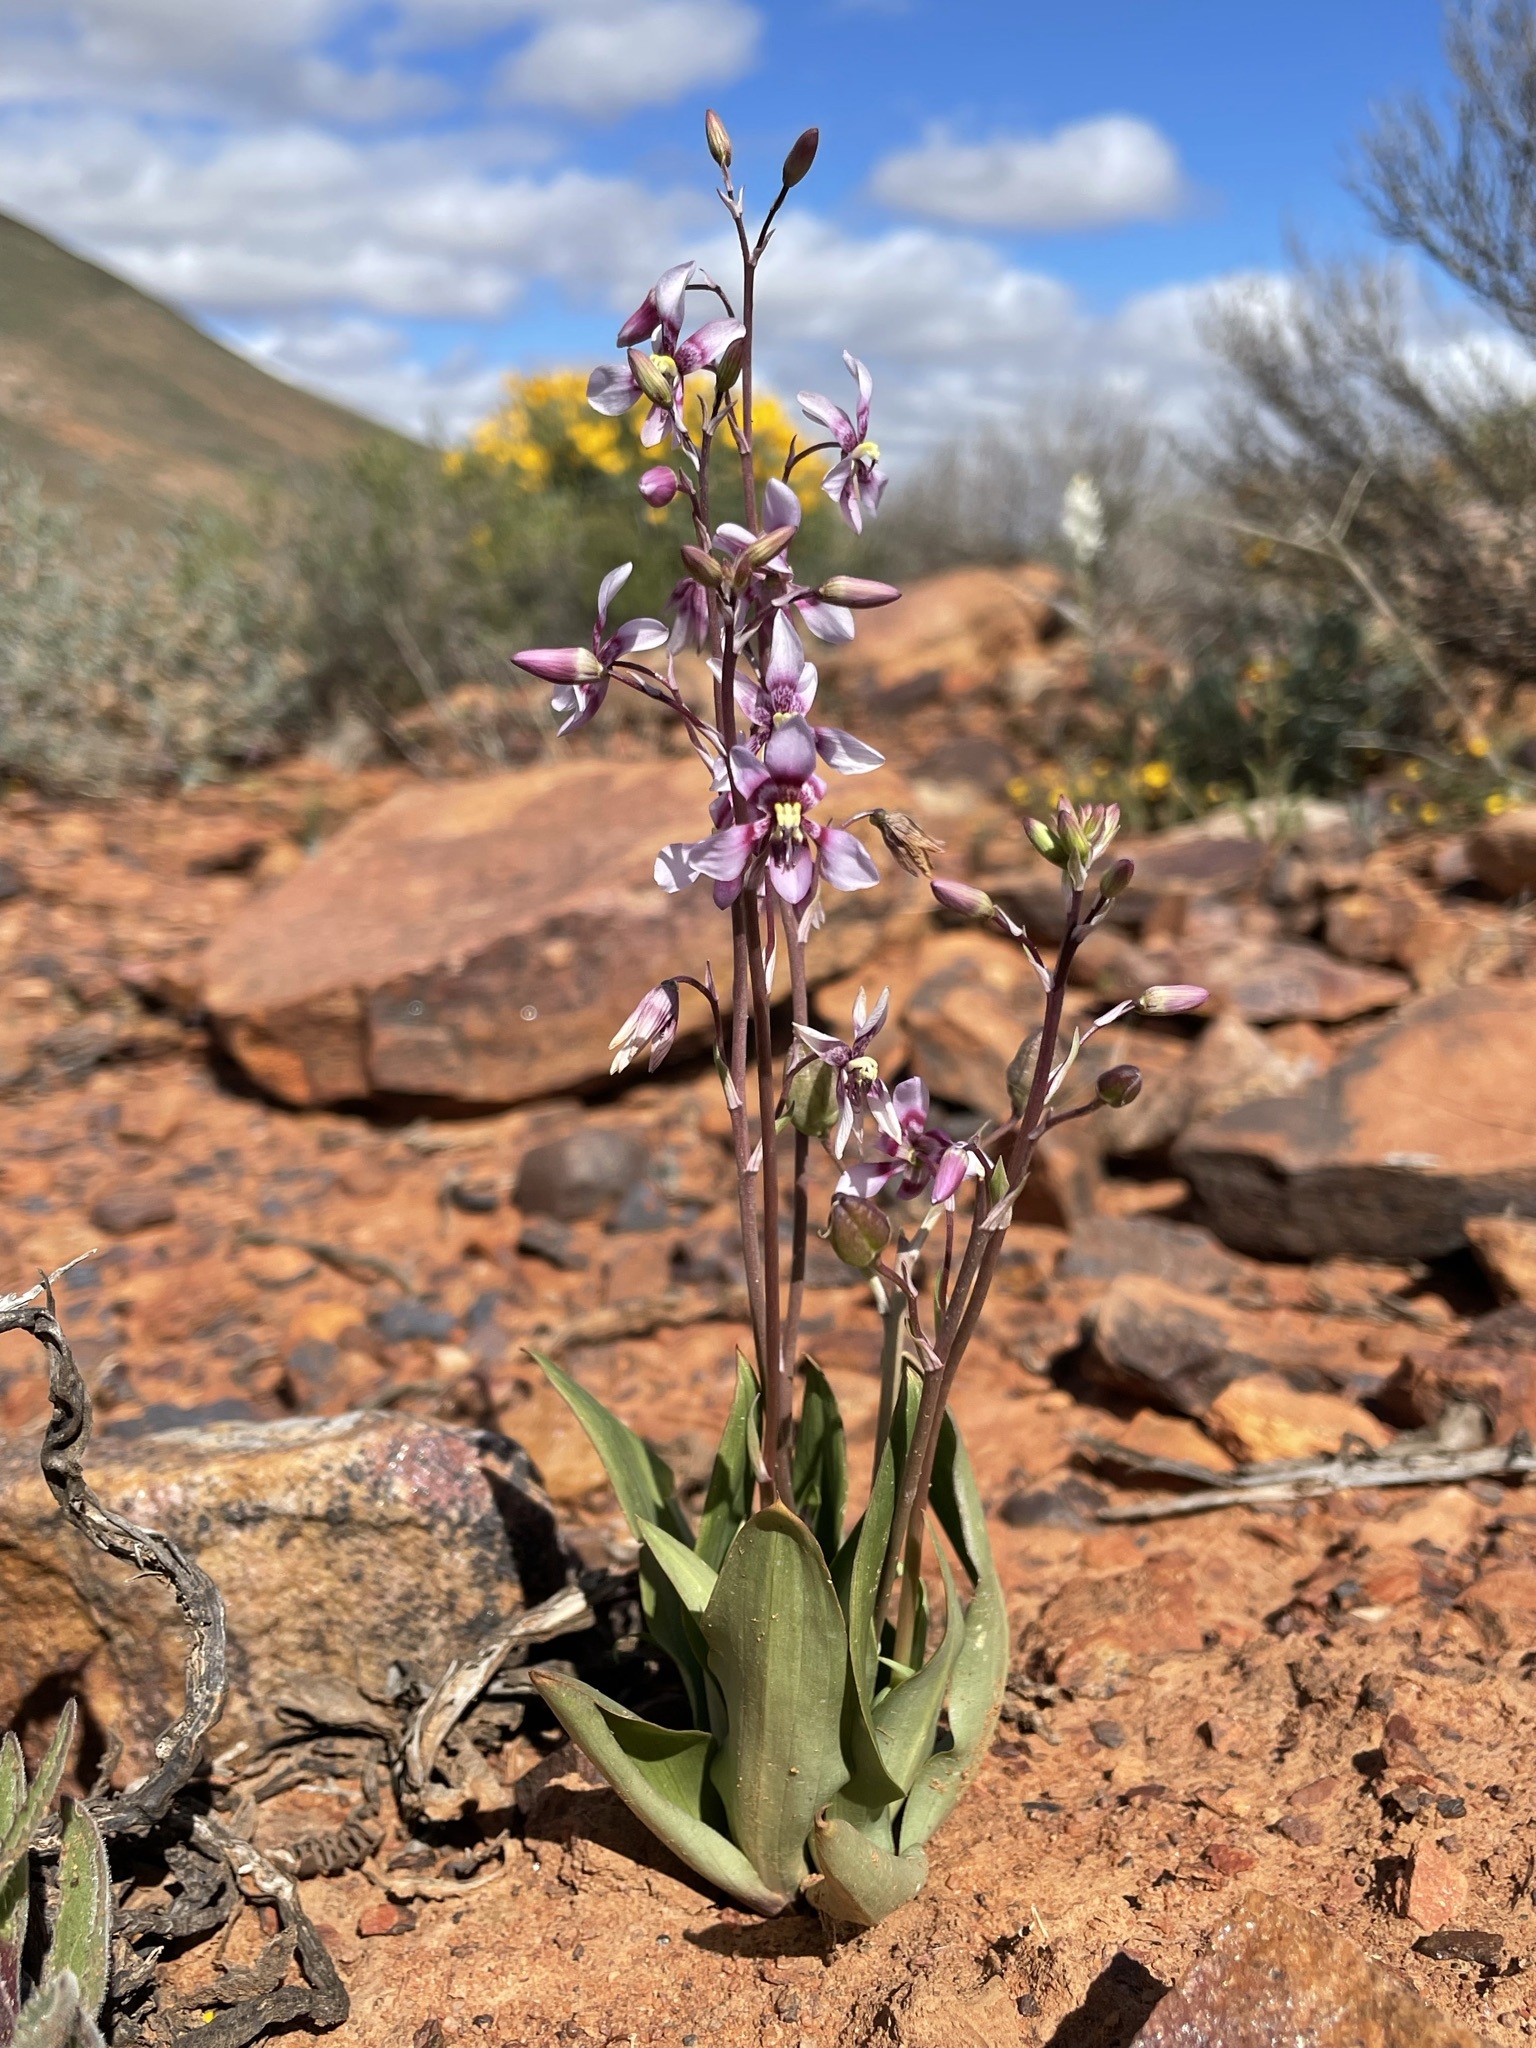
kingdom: Plantae
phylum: Tracheophyta
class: Liliopsida
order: Asparagales
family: Tecophilaeaceae
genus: Cyanella
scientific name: Cyanella orchidiformis
